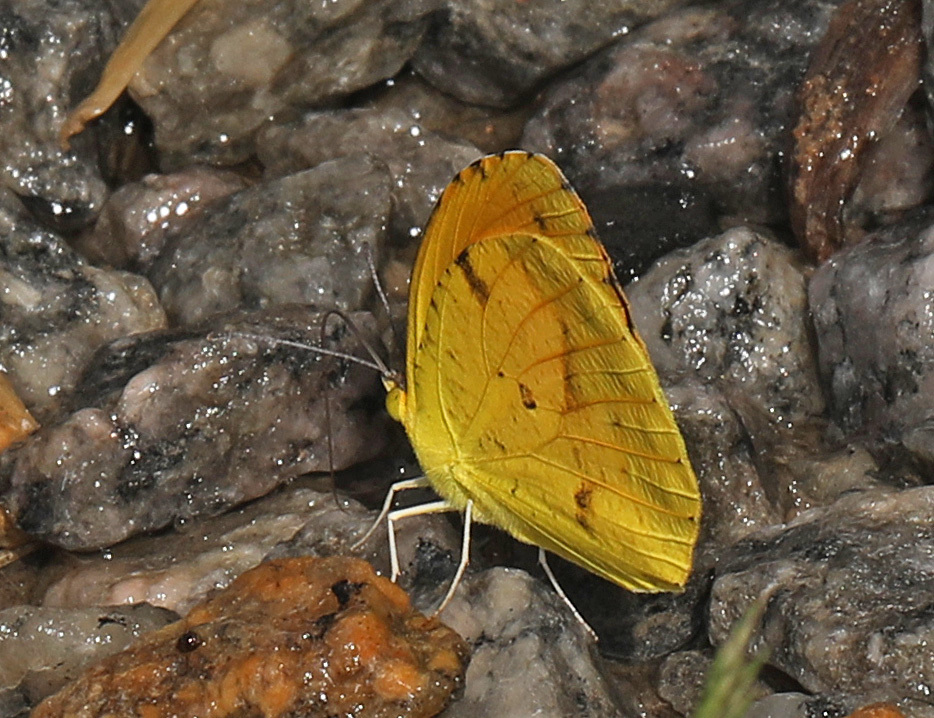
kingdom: Animalia
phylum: Arthropoda
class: Insecta
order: Lepidoptera
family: Pieridae
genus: Abaeis
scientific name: Abaeis nicippe
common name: Sleepy orange
